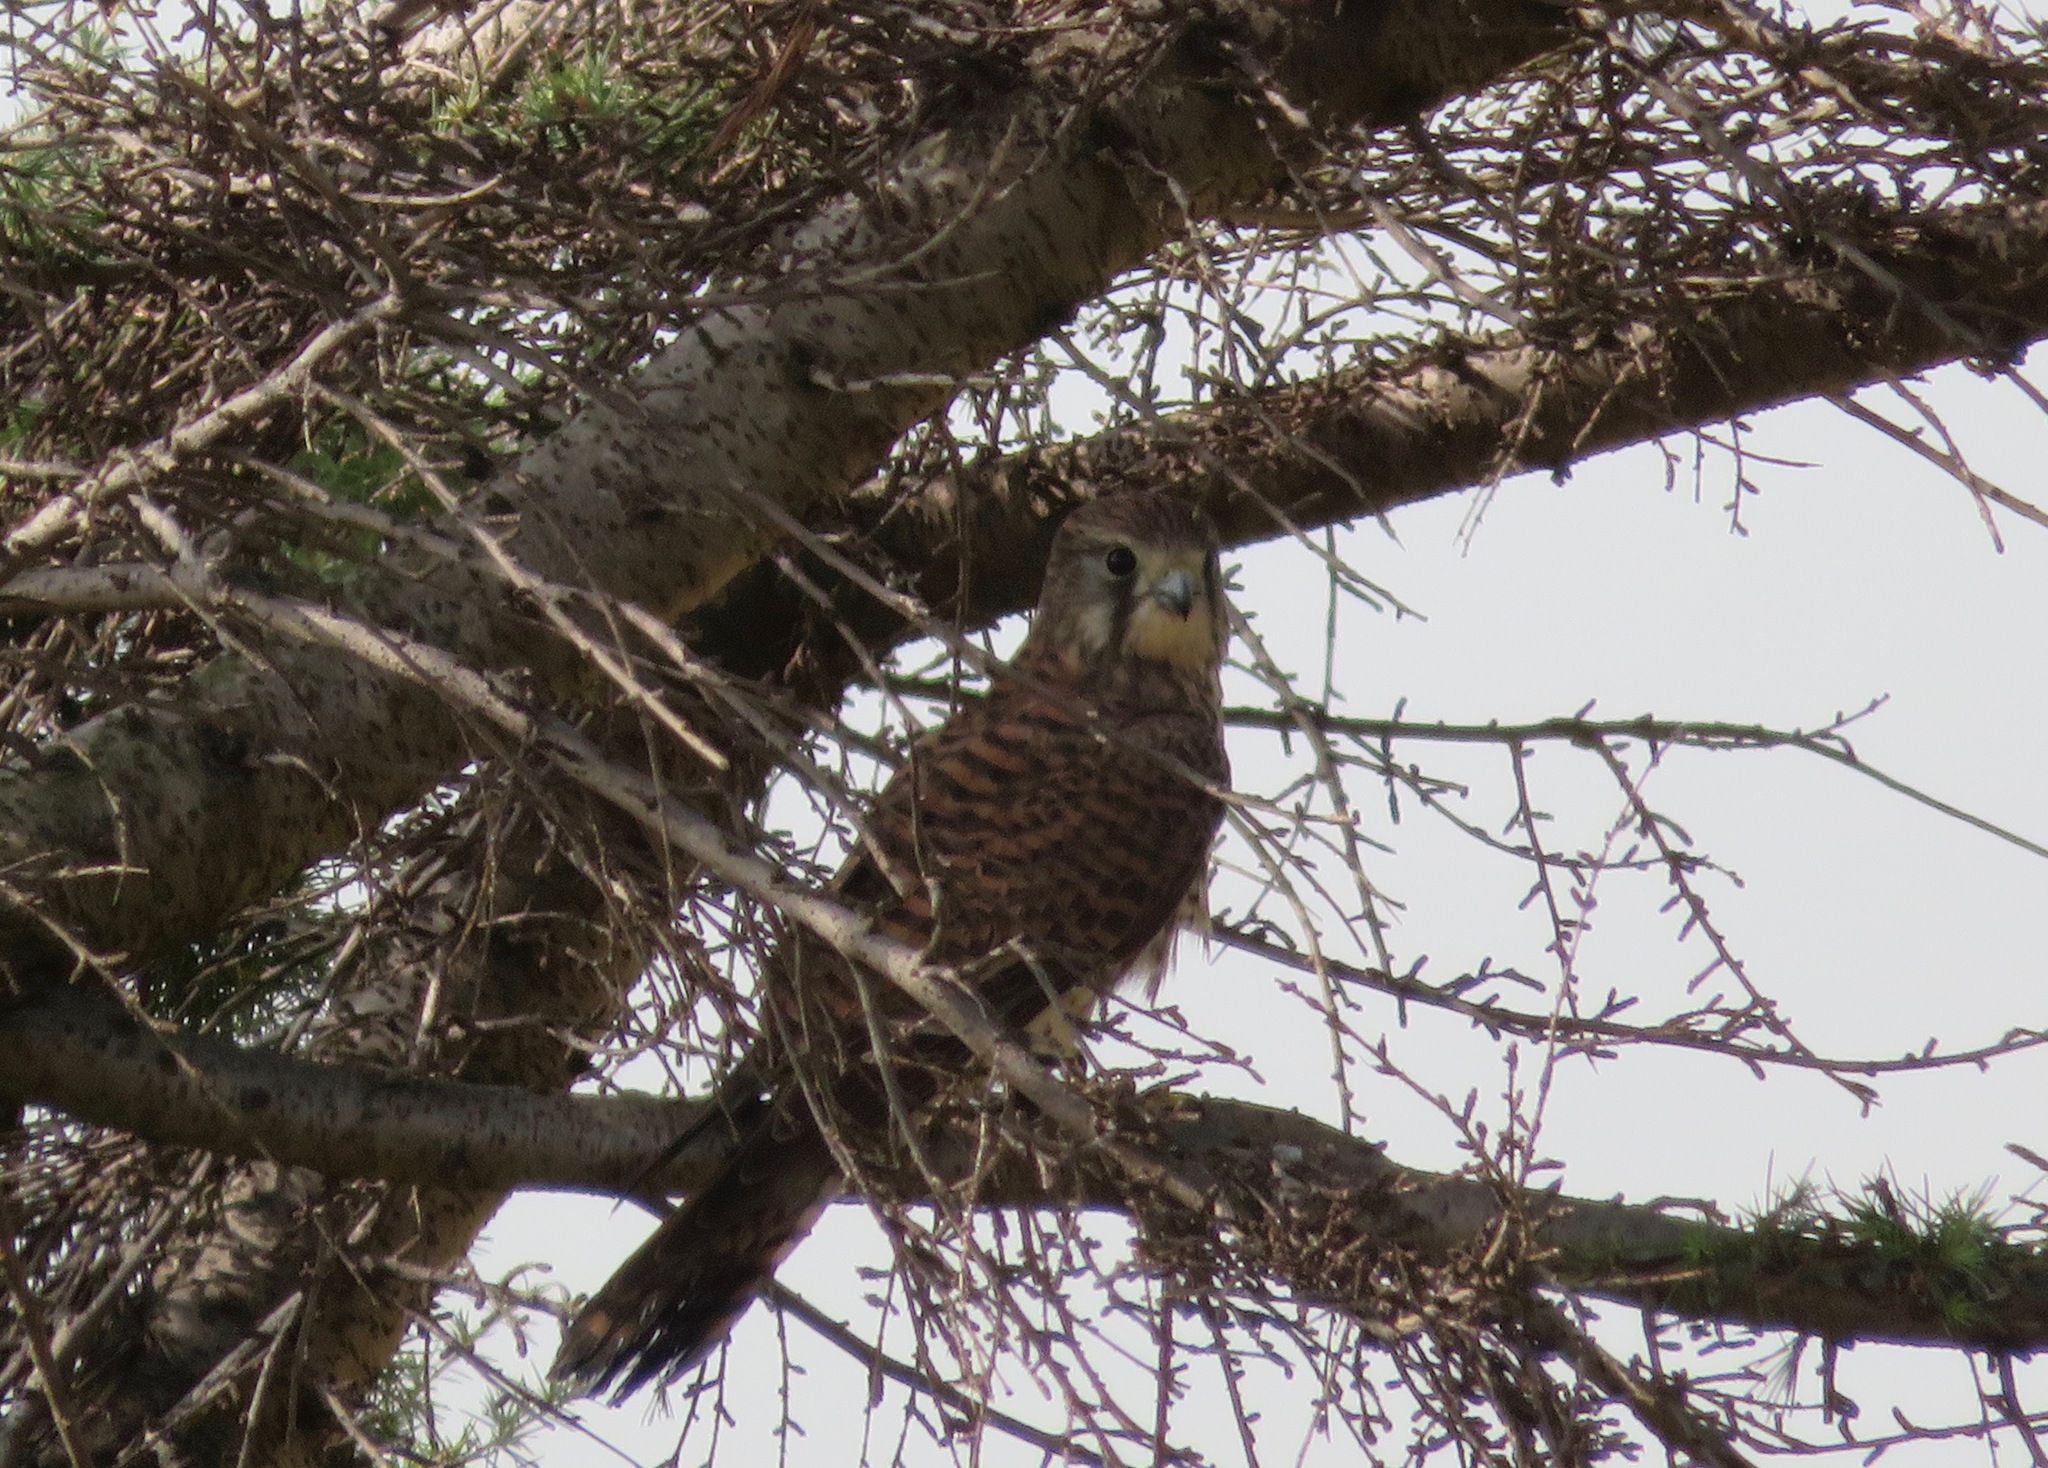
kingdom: Animalia
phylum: Chordata
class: Aves
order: Falconiformes
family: Falconidae
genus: Falco
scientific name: Falco tinnunculus
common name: Common kestrel
